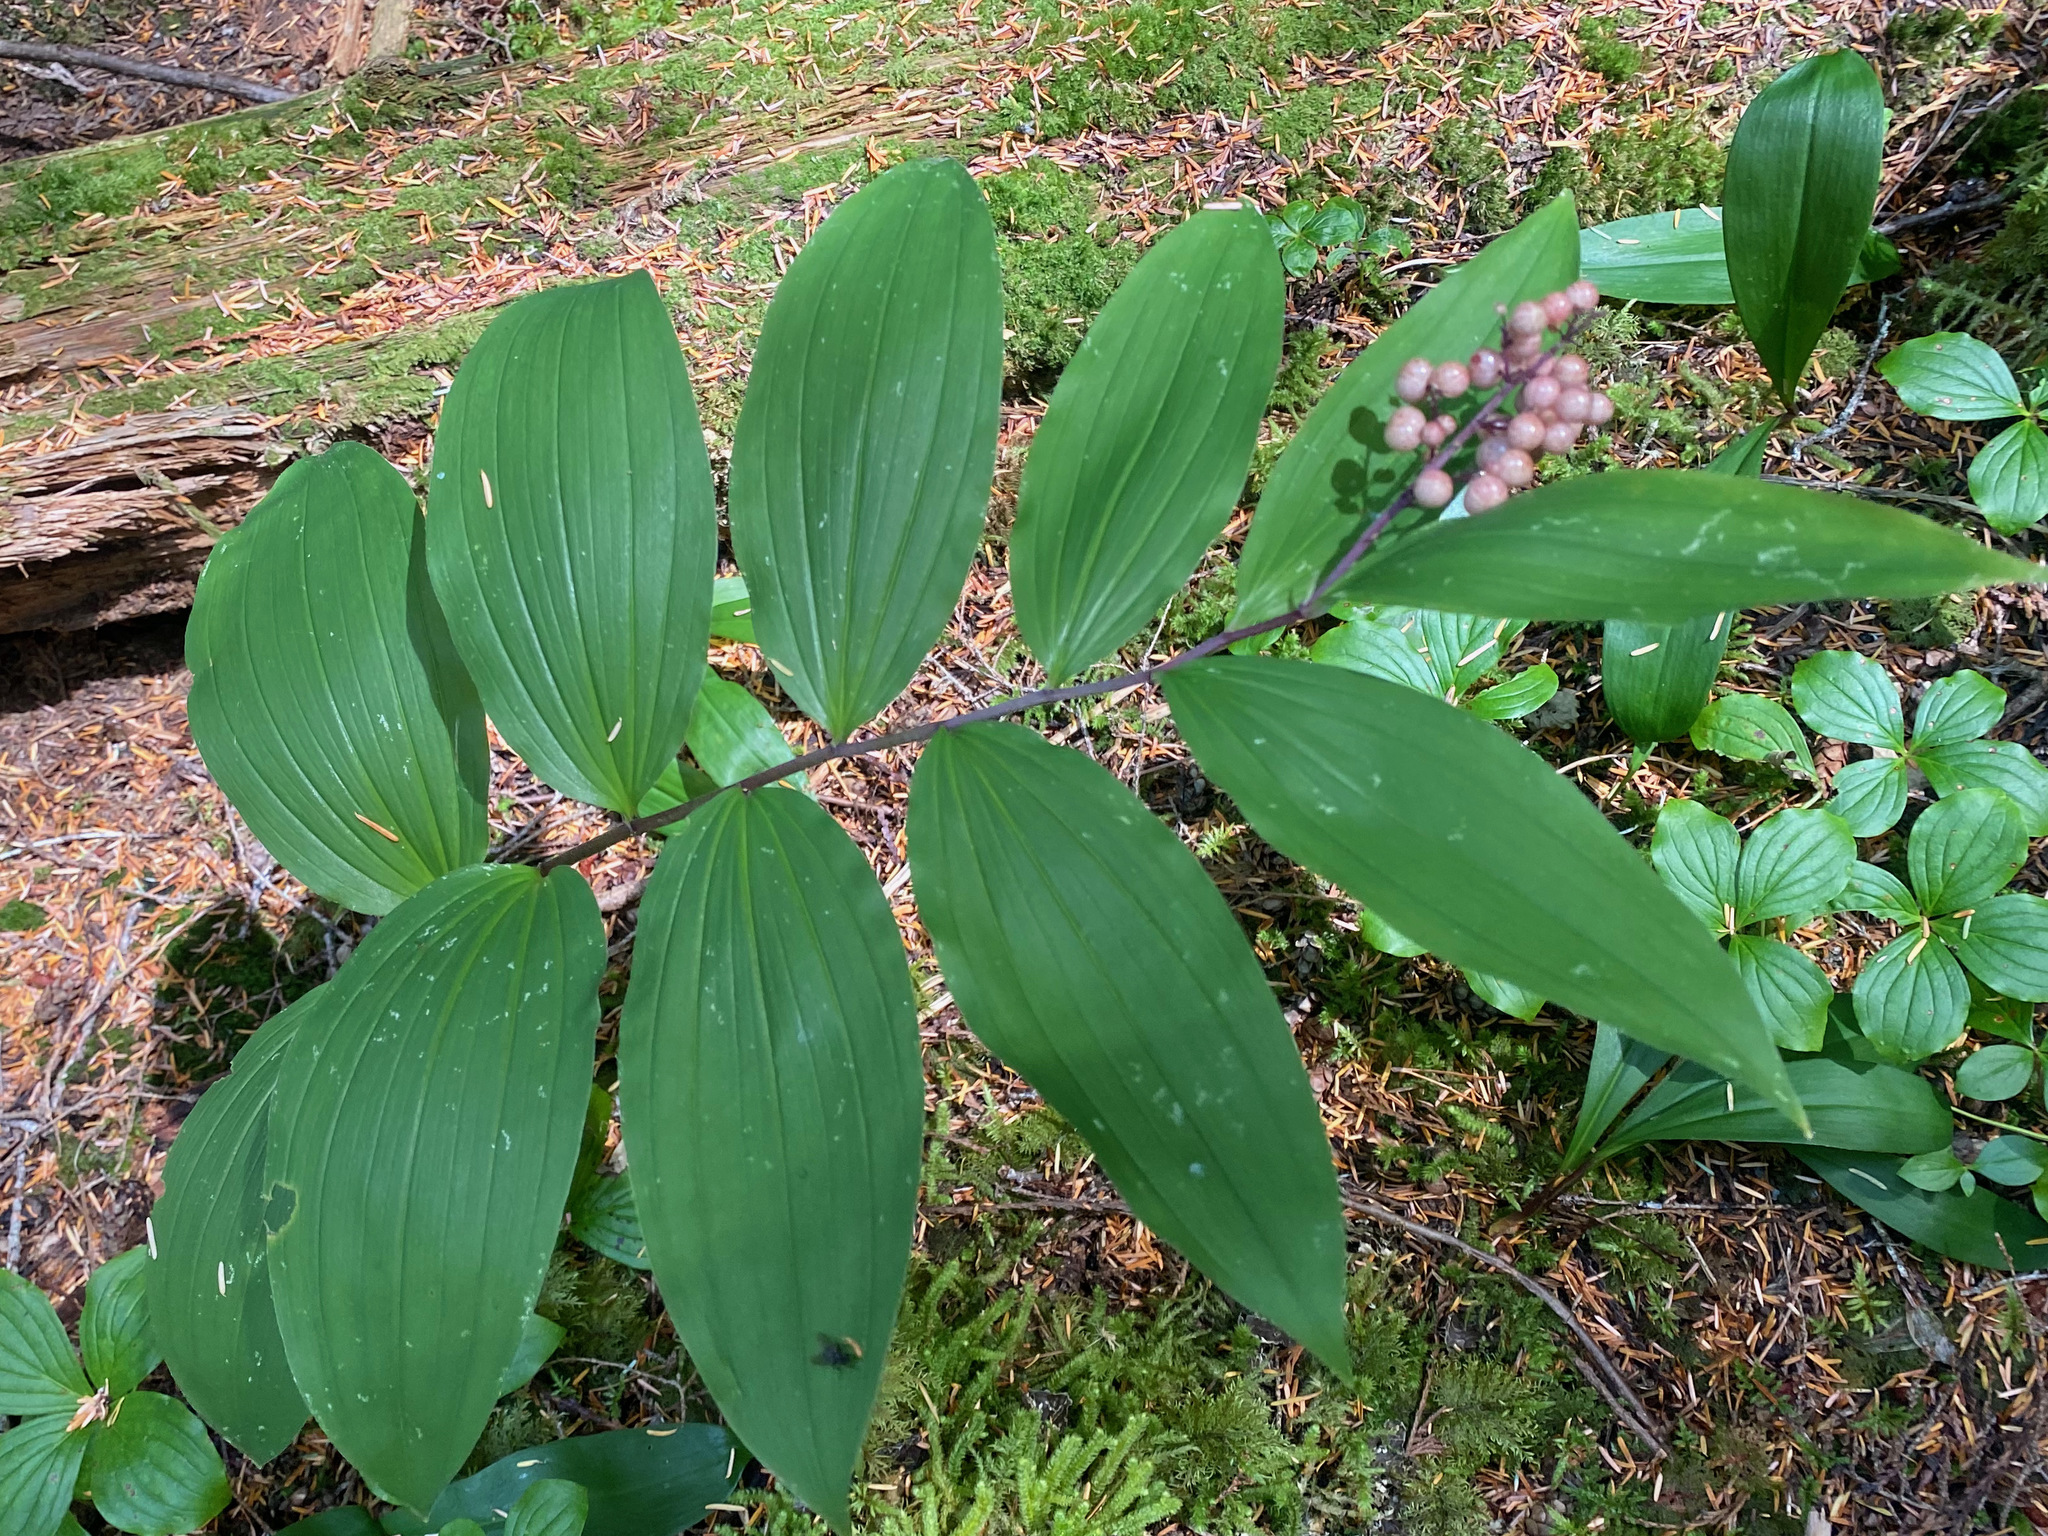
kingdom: Plantae
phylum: Tracheophyta
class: Liliopsida
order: Asparagales
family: Asparagaceae
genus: Maianthemum
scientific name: Maianthemum racemosum
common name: False spikenard
